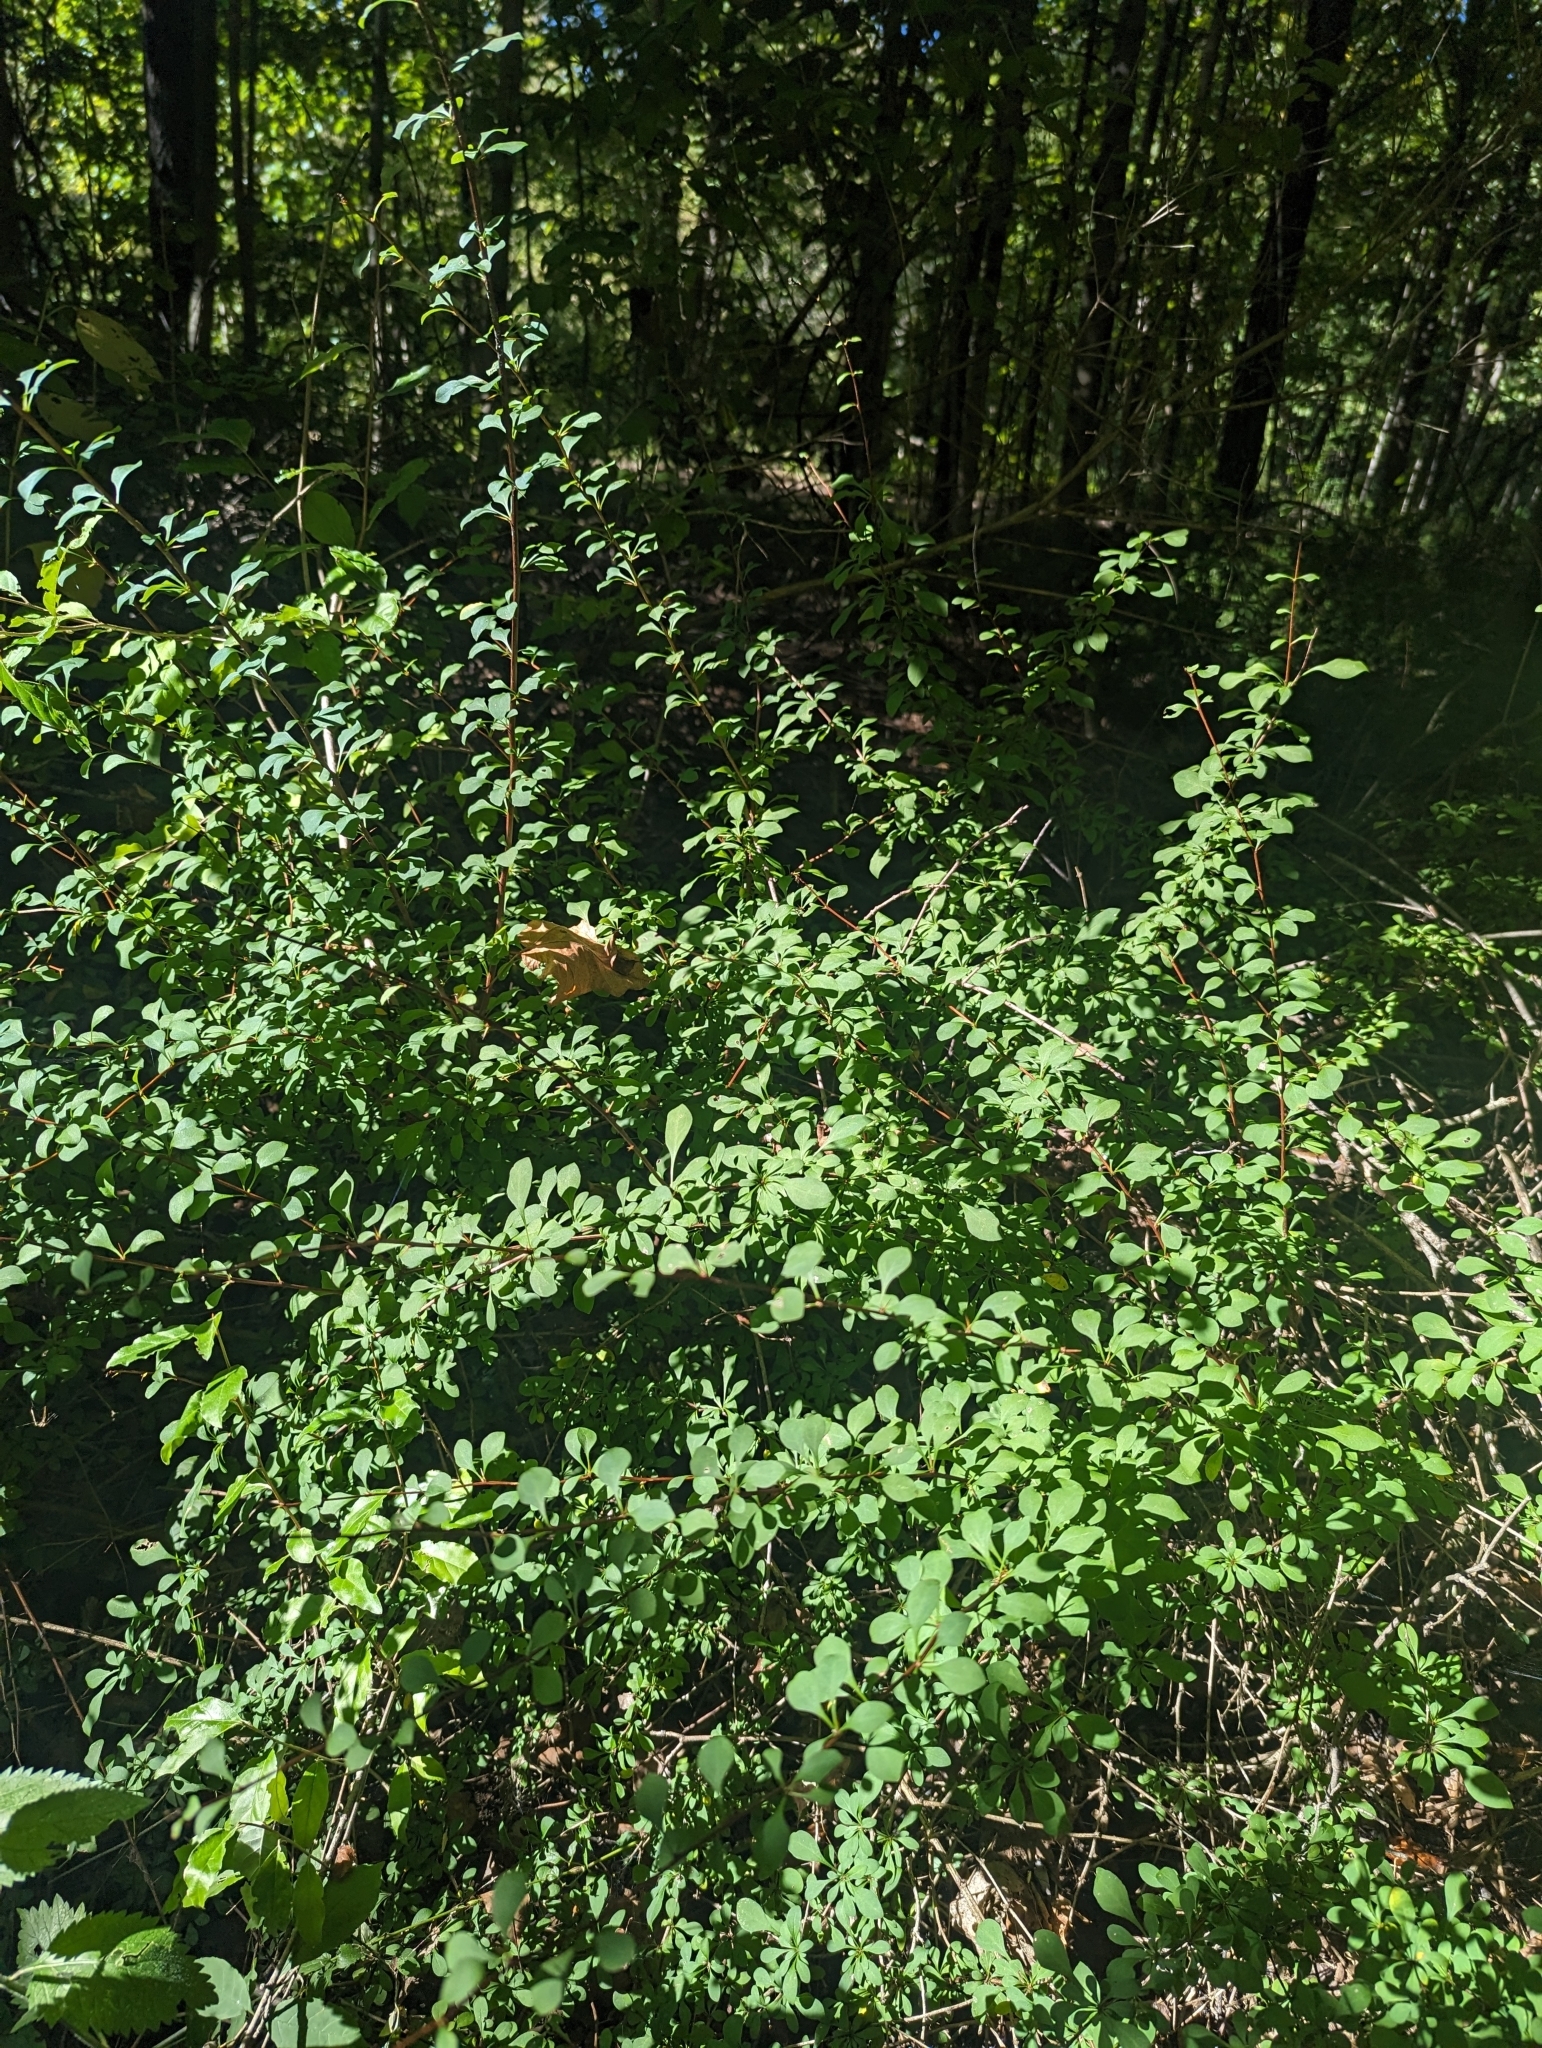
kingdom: Plantae
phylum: Tracheophyta
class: Magnoliopsida
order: Ranunculales
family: Berberidaceae
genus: Berberis
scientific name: Berberis thunbergii
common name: Japanese barberry
